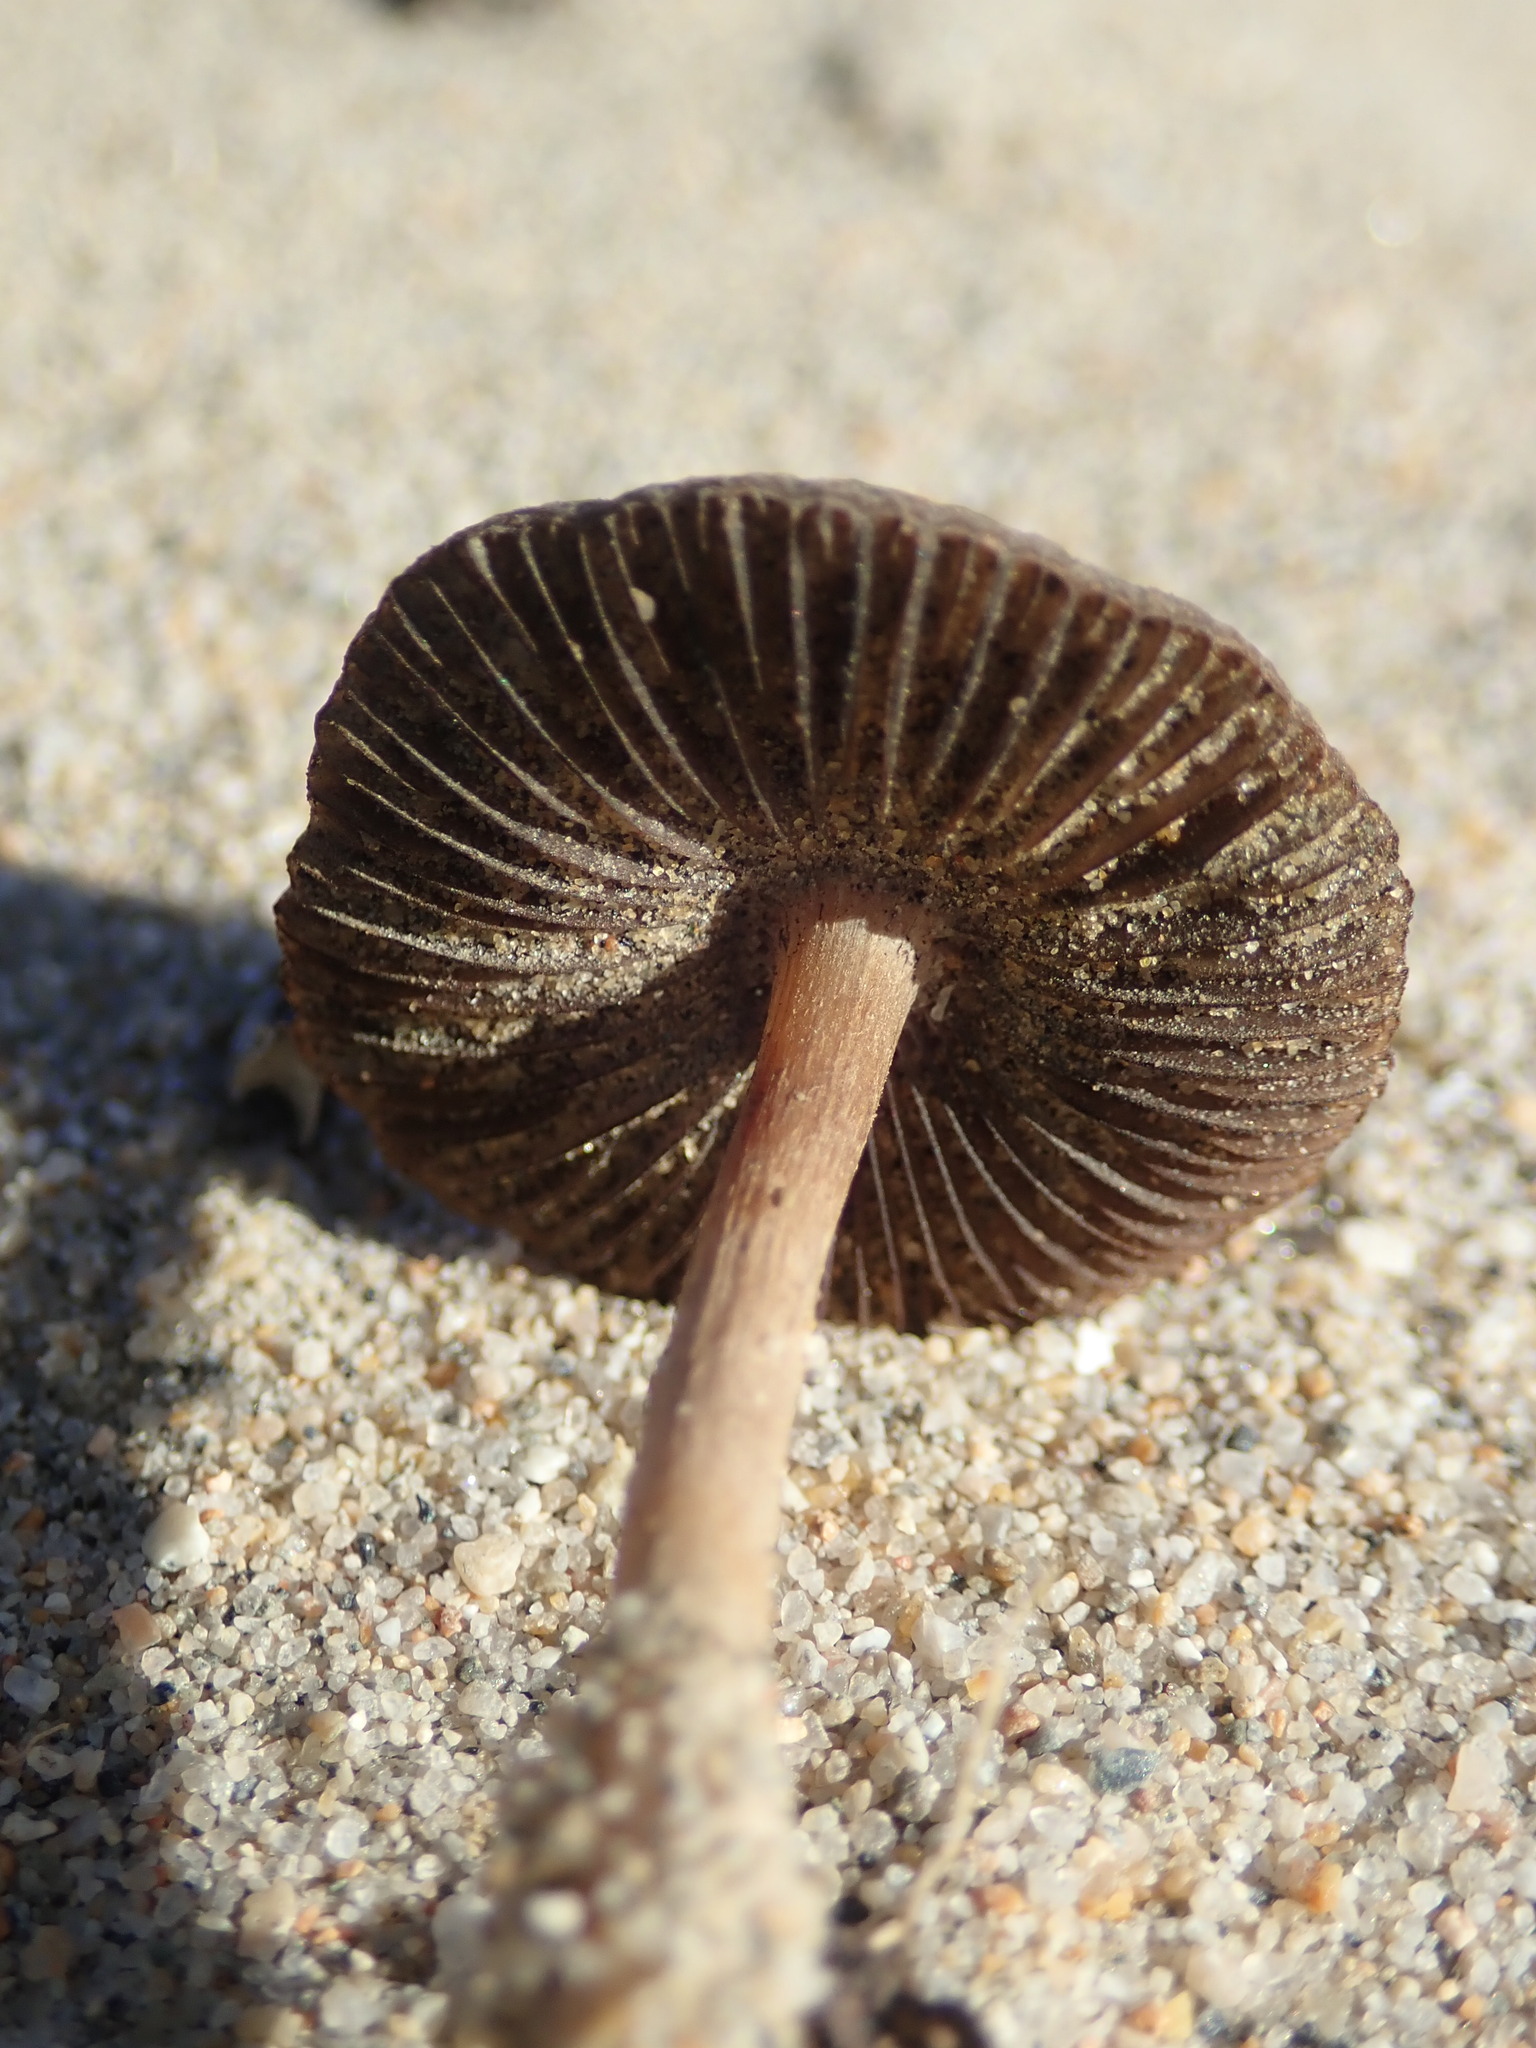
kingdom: Fungi
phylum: Basidiomycota
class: Agaricomycetes
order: Agaricales
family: Psathyrellaceae
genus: Psathyrella
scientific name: Psathyrella ammophila
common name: Dune brittlestem
